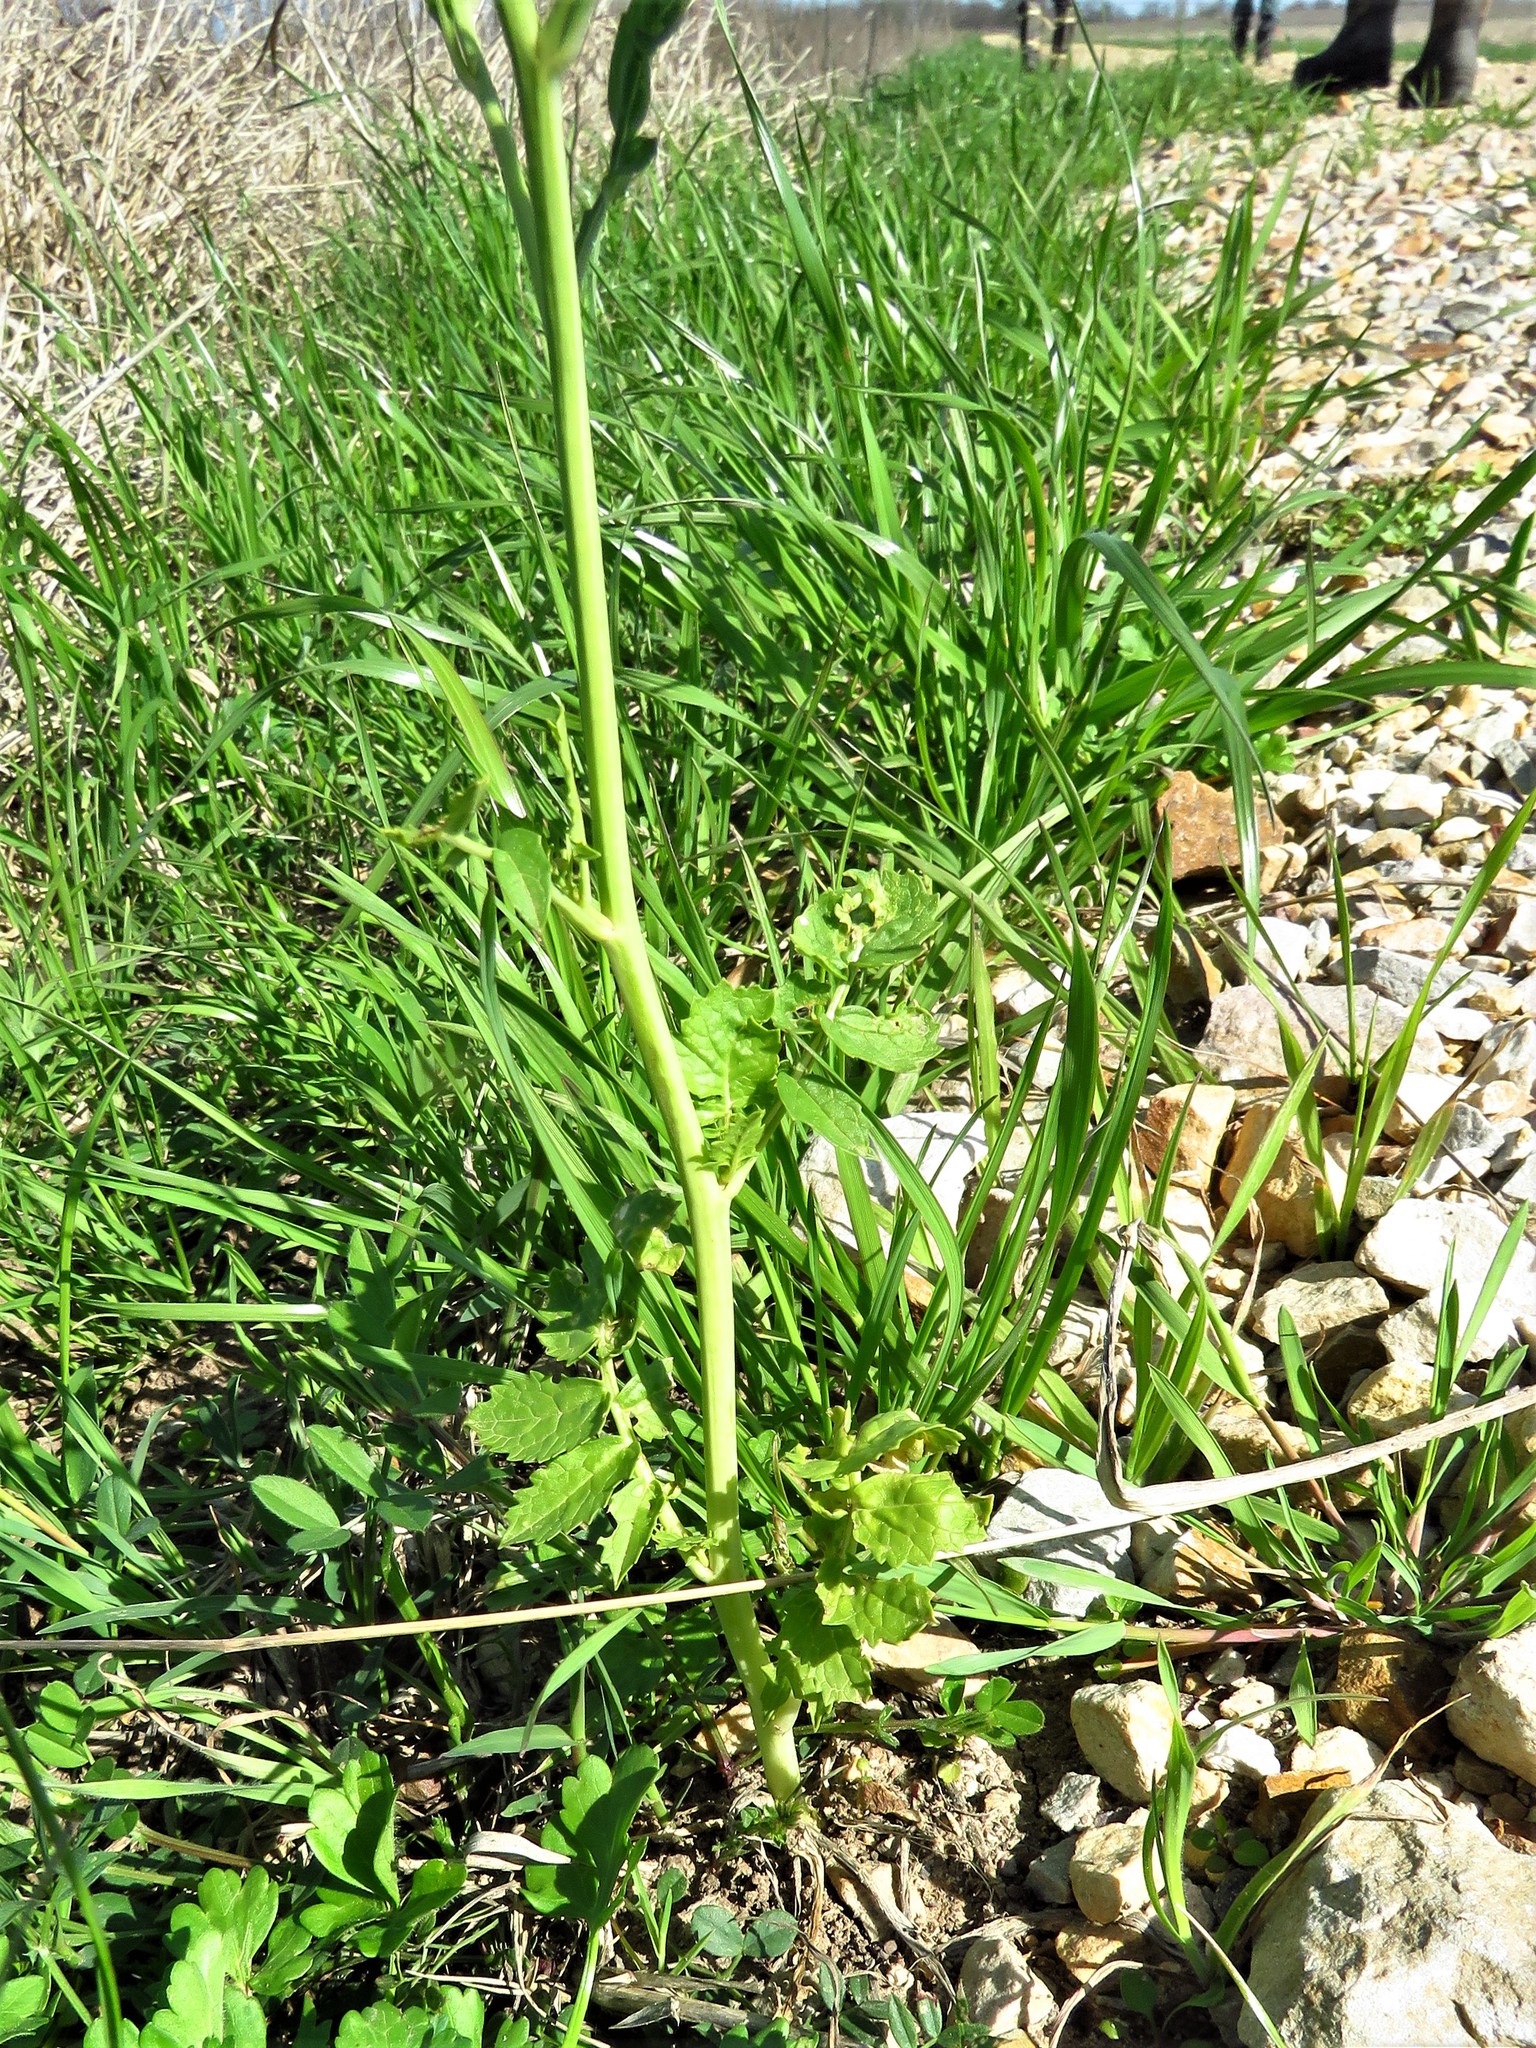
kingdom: Plantae
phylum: Tracheophyta
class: Magnoliopsida
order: Brassicales
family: Brassicaceae
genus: Raphanus
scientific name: Raphanus sativus
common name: Cultivated radish
